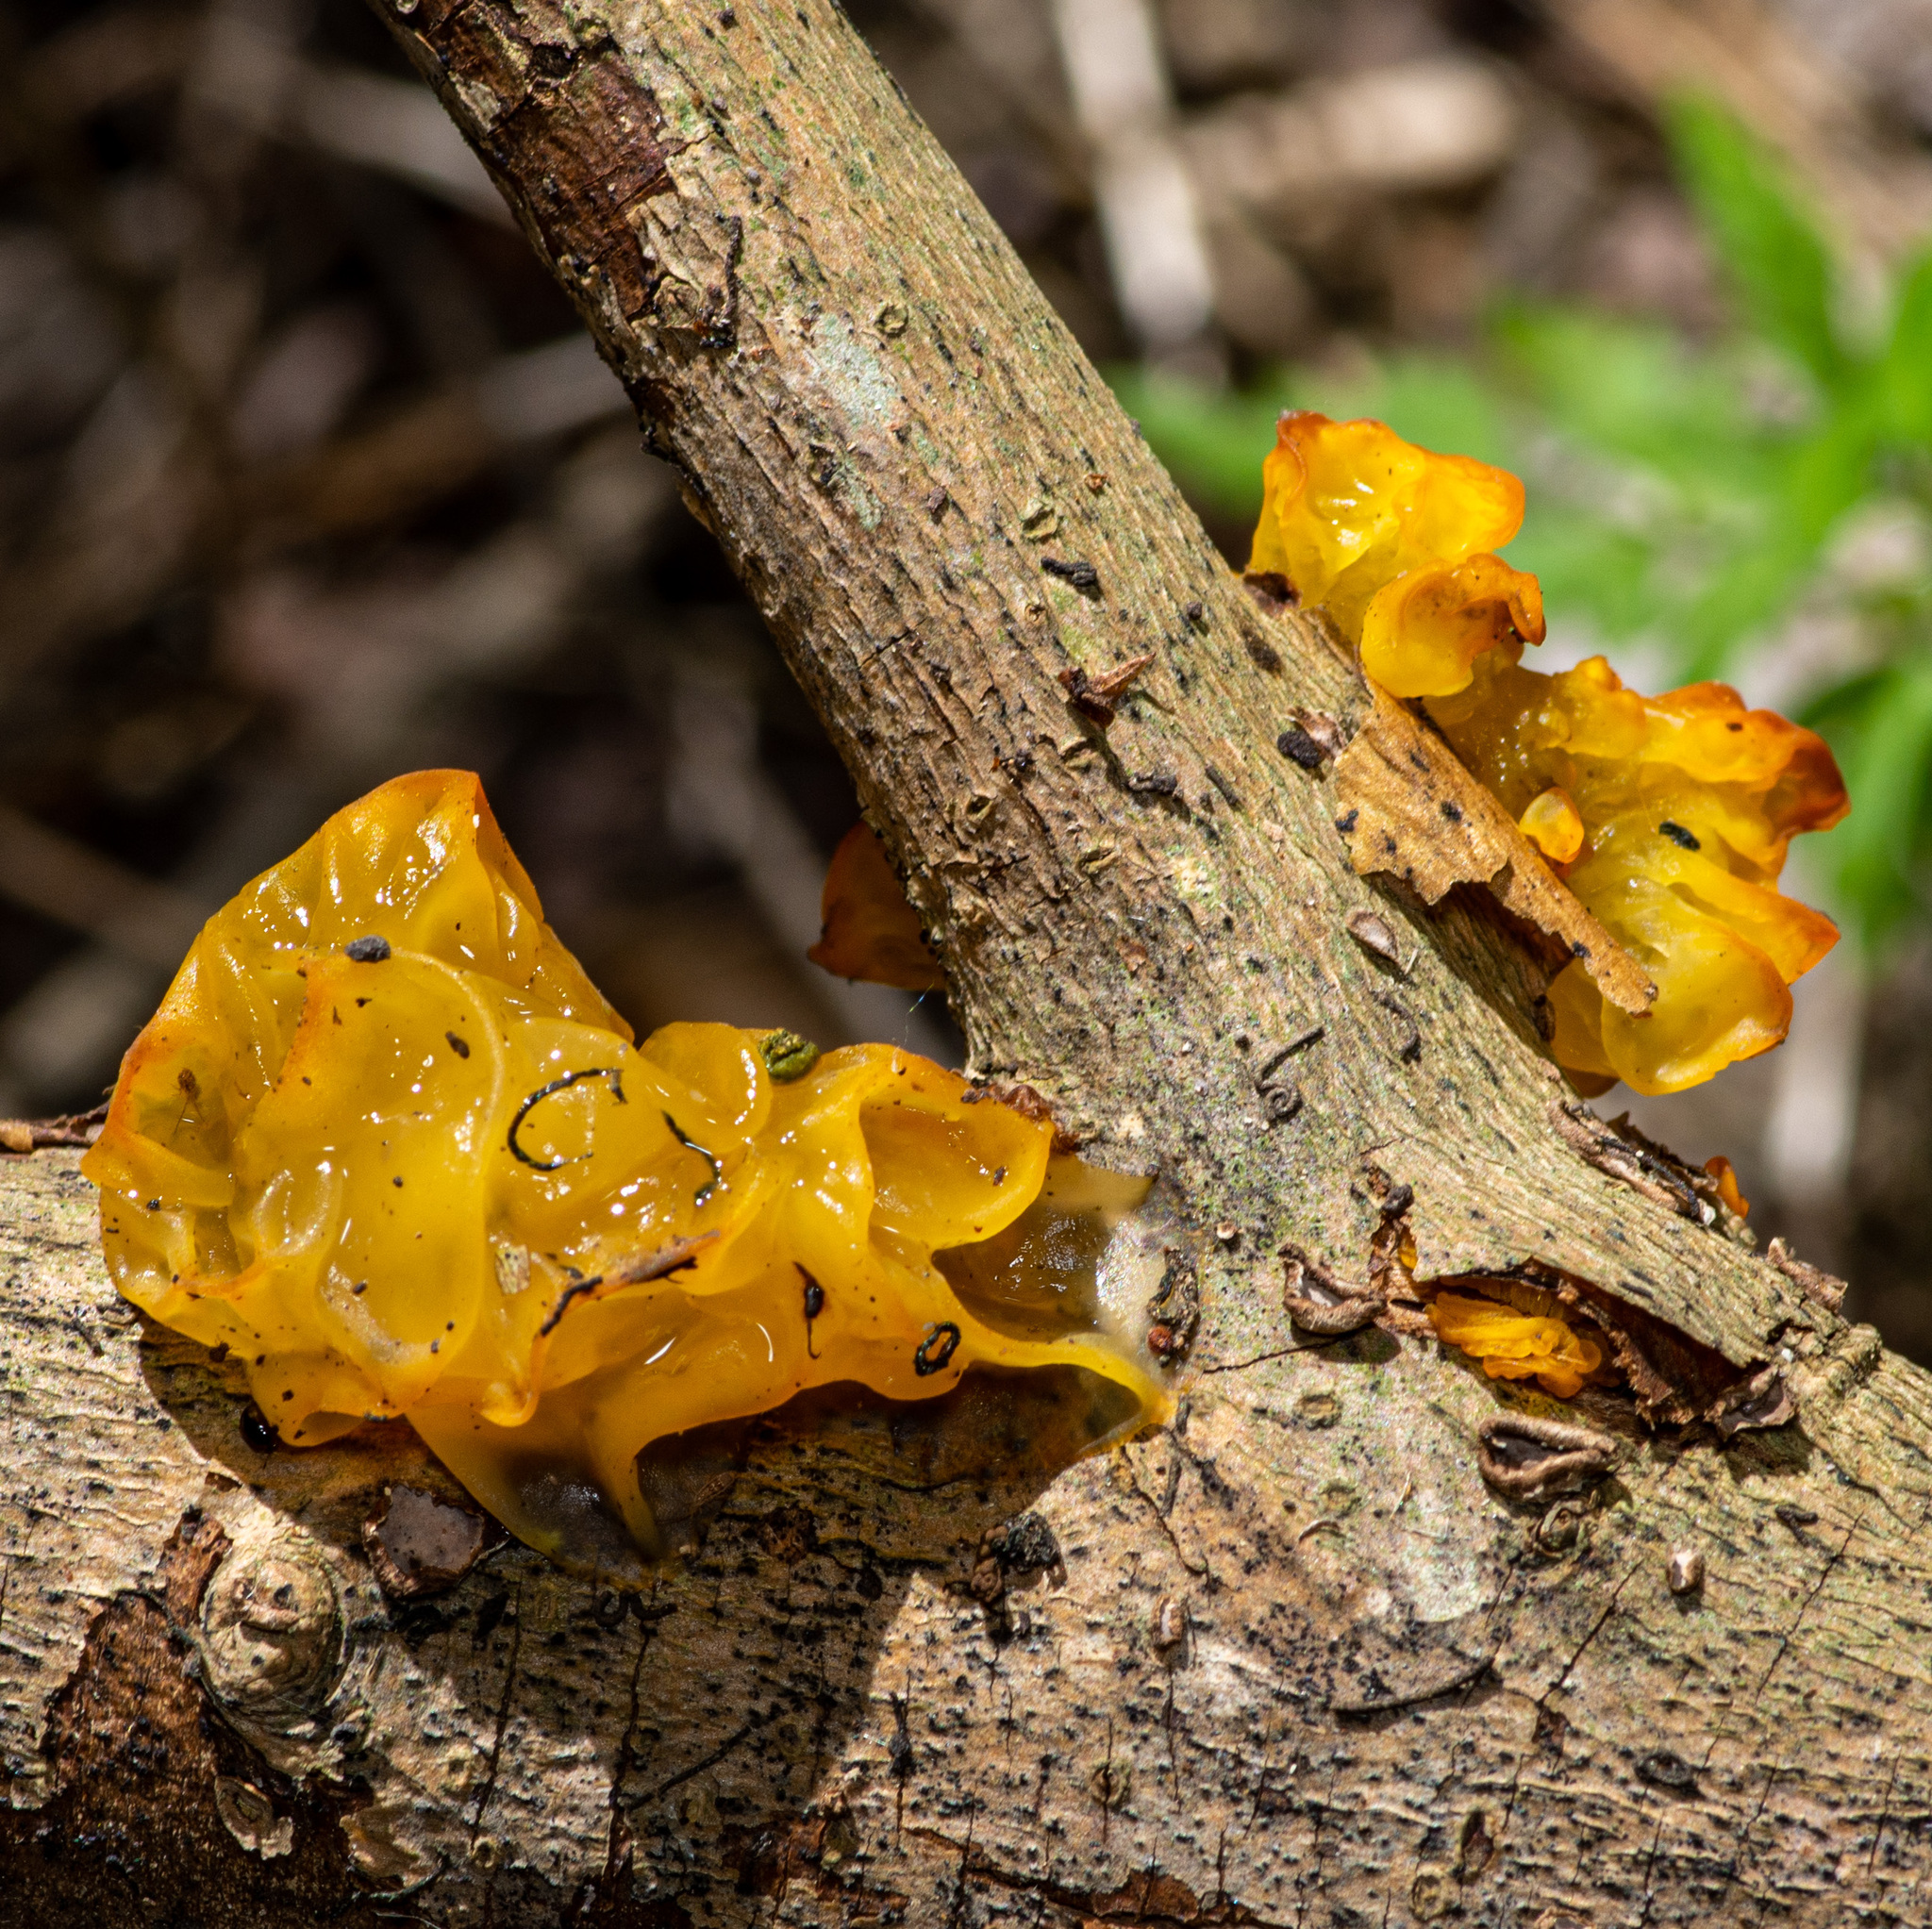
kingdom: Fungi
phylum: Basidiomycota
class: Tremellomycetes
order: Tremellales
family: Tremellaceae
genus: Tremella
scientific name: Tremella mesenterica
